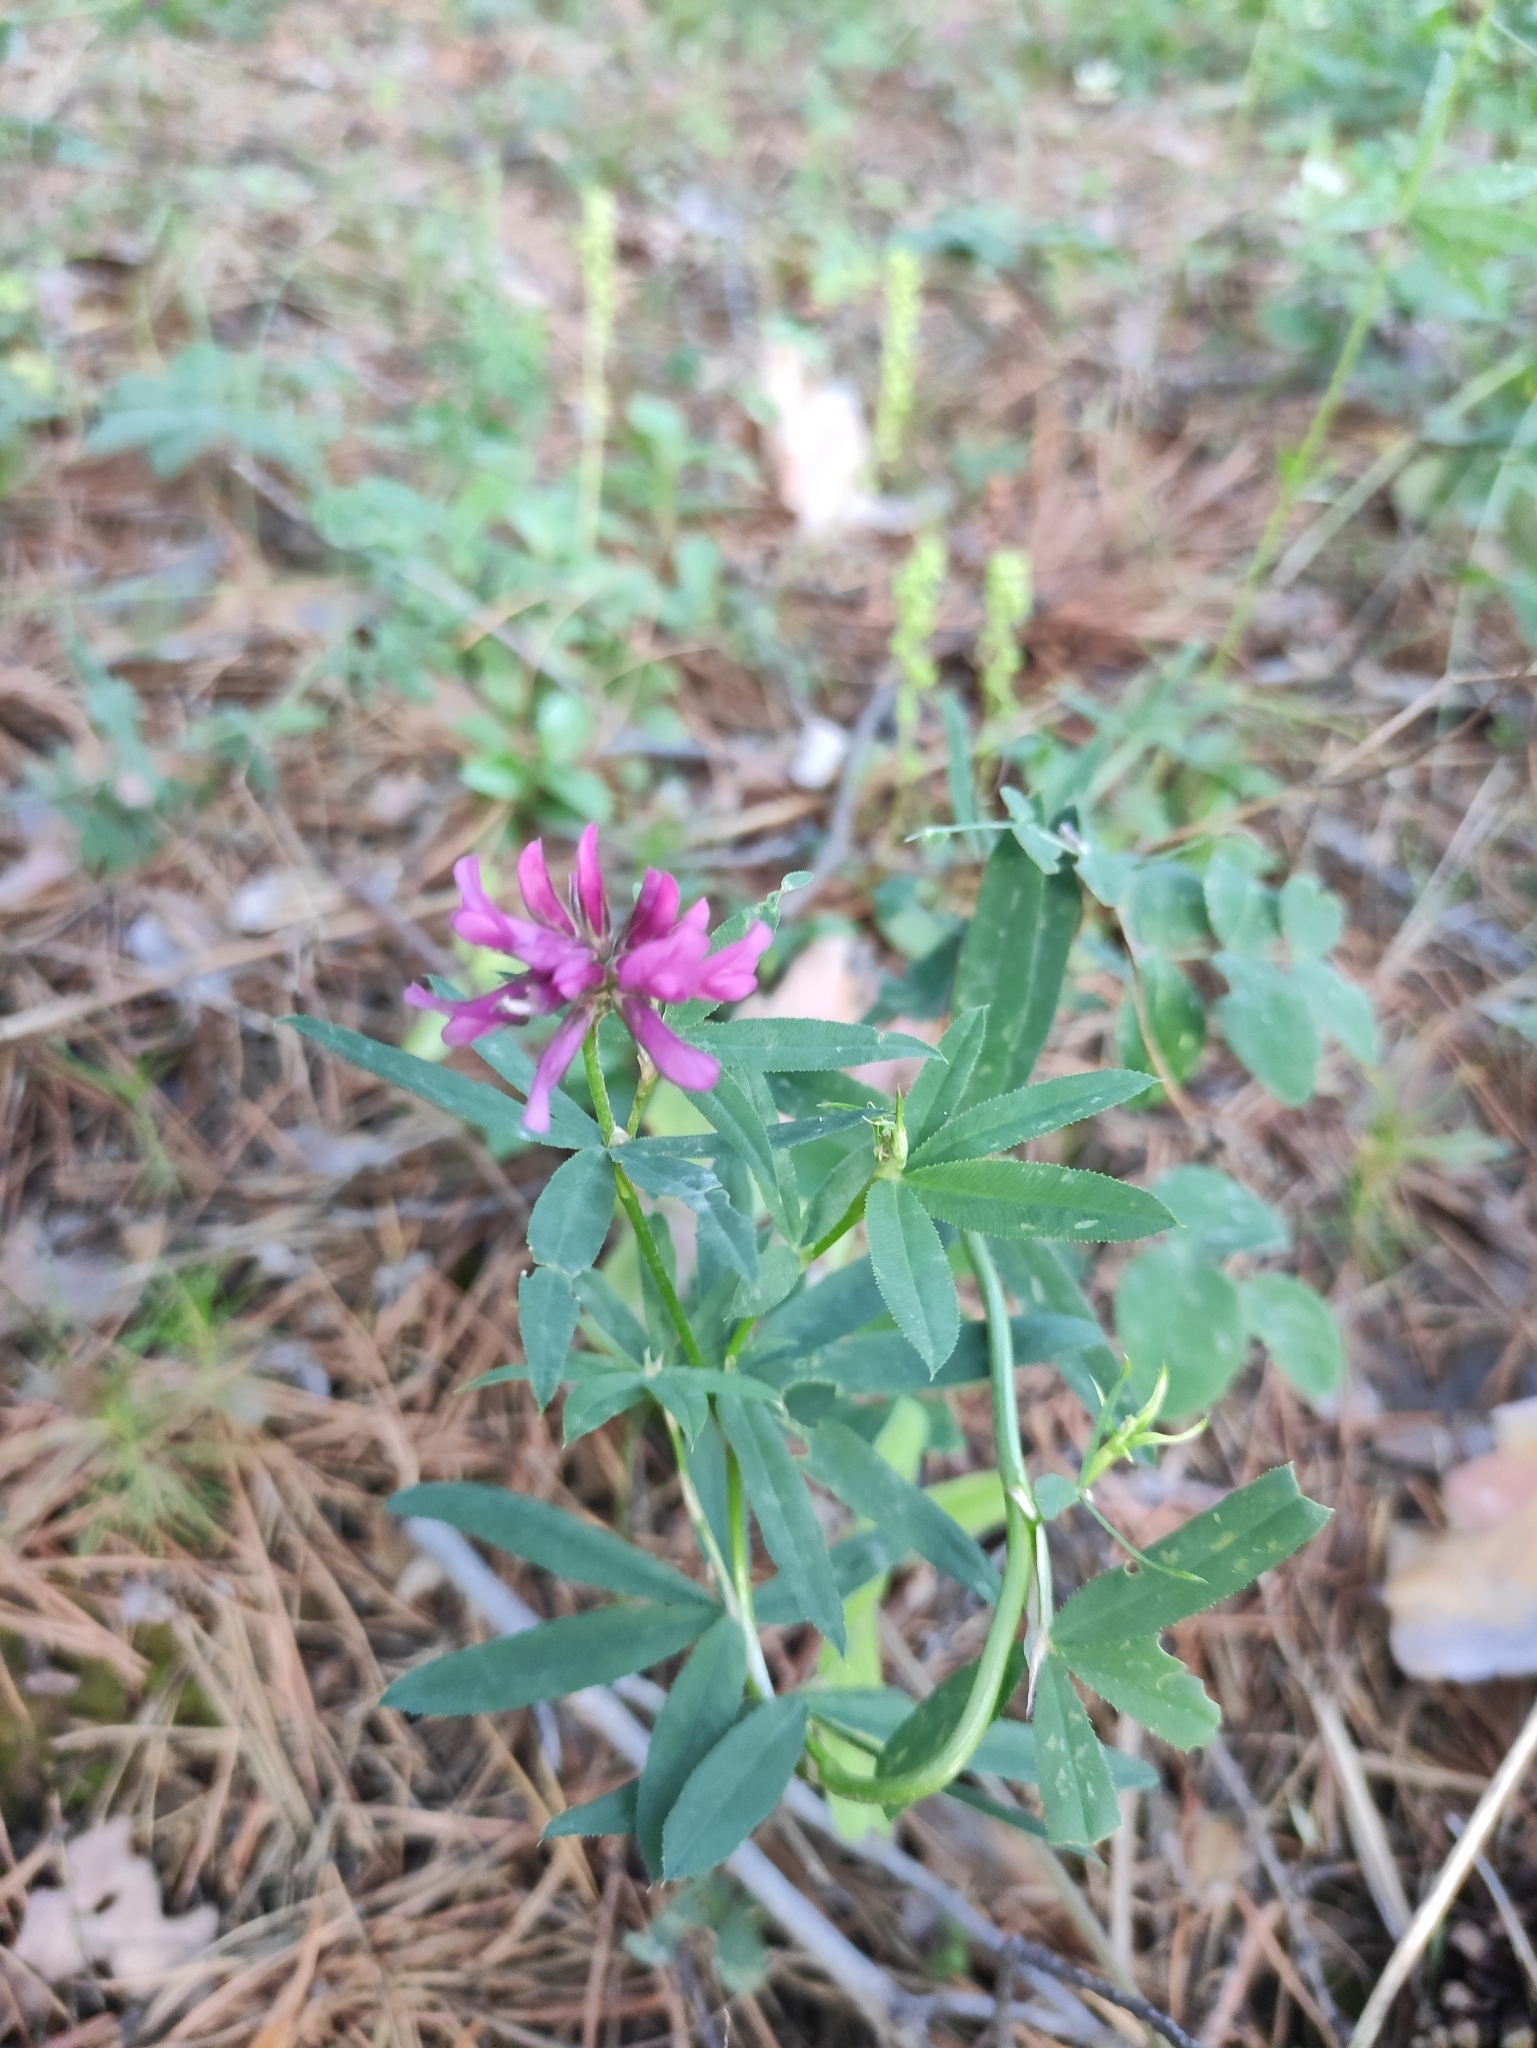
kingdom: Plantae
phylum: Tracheophyta
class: Magnoliopsida
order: Fabales
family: Fabaceae
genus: Trifolium
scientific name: Trifolium lupinaster
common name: Lupine clover
